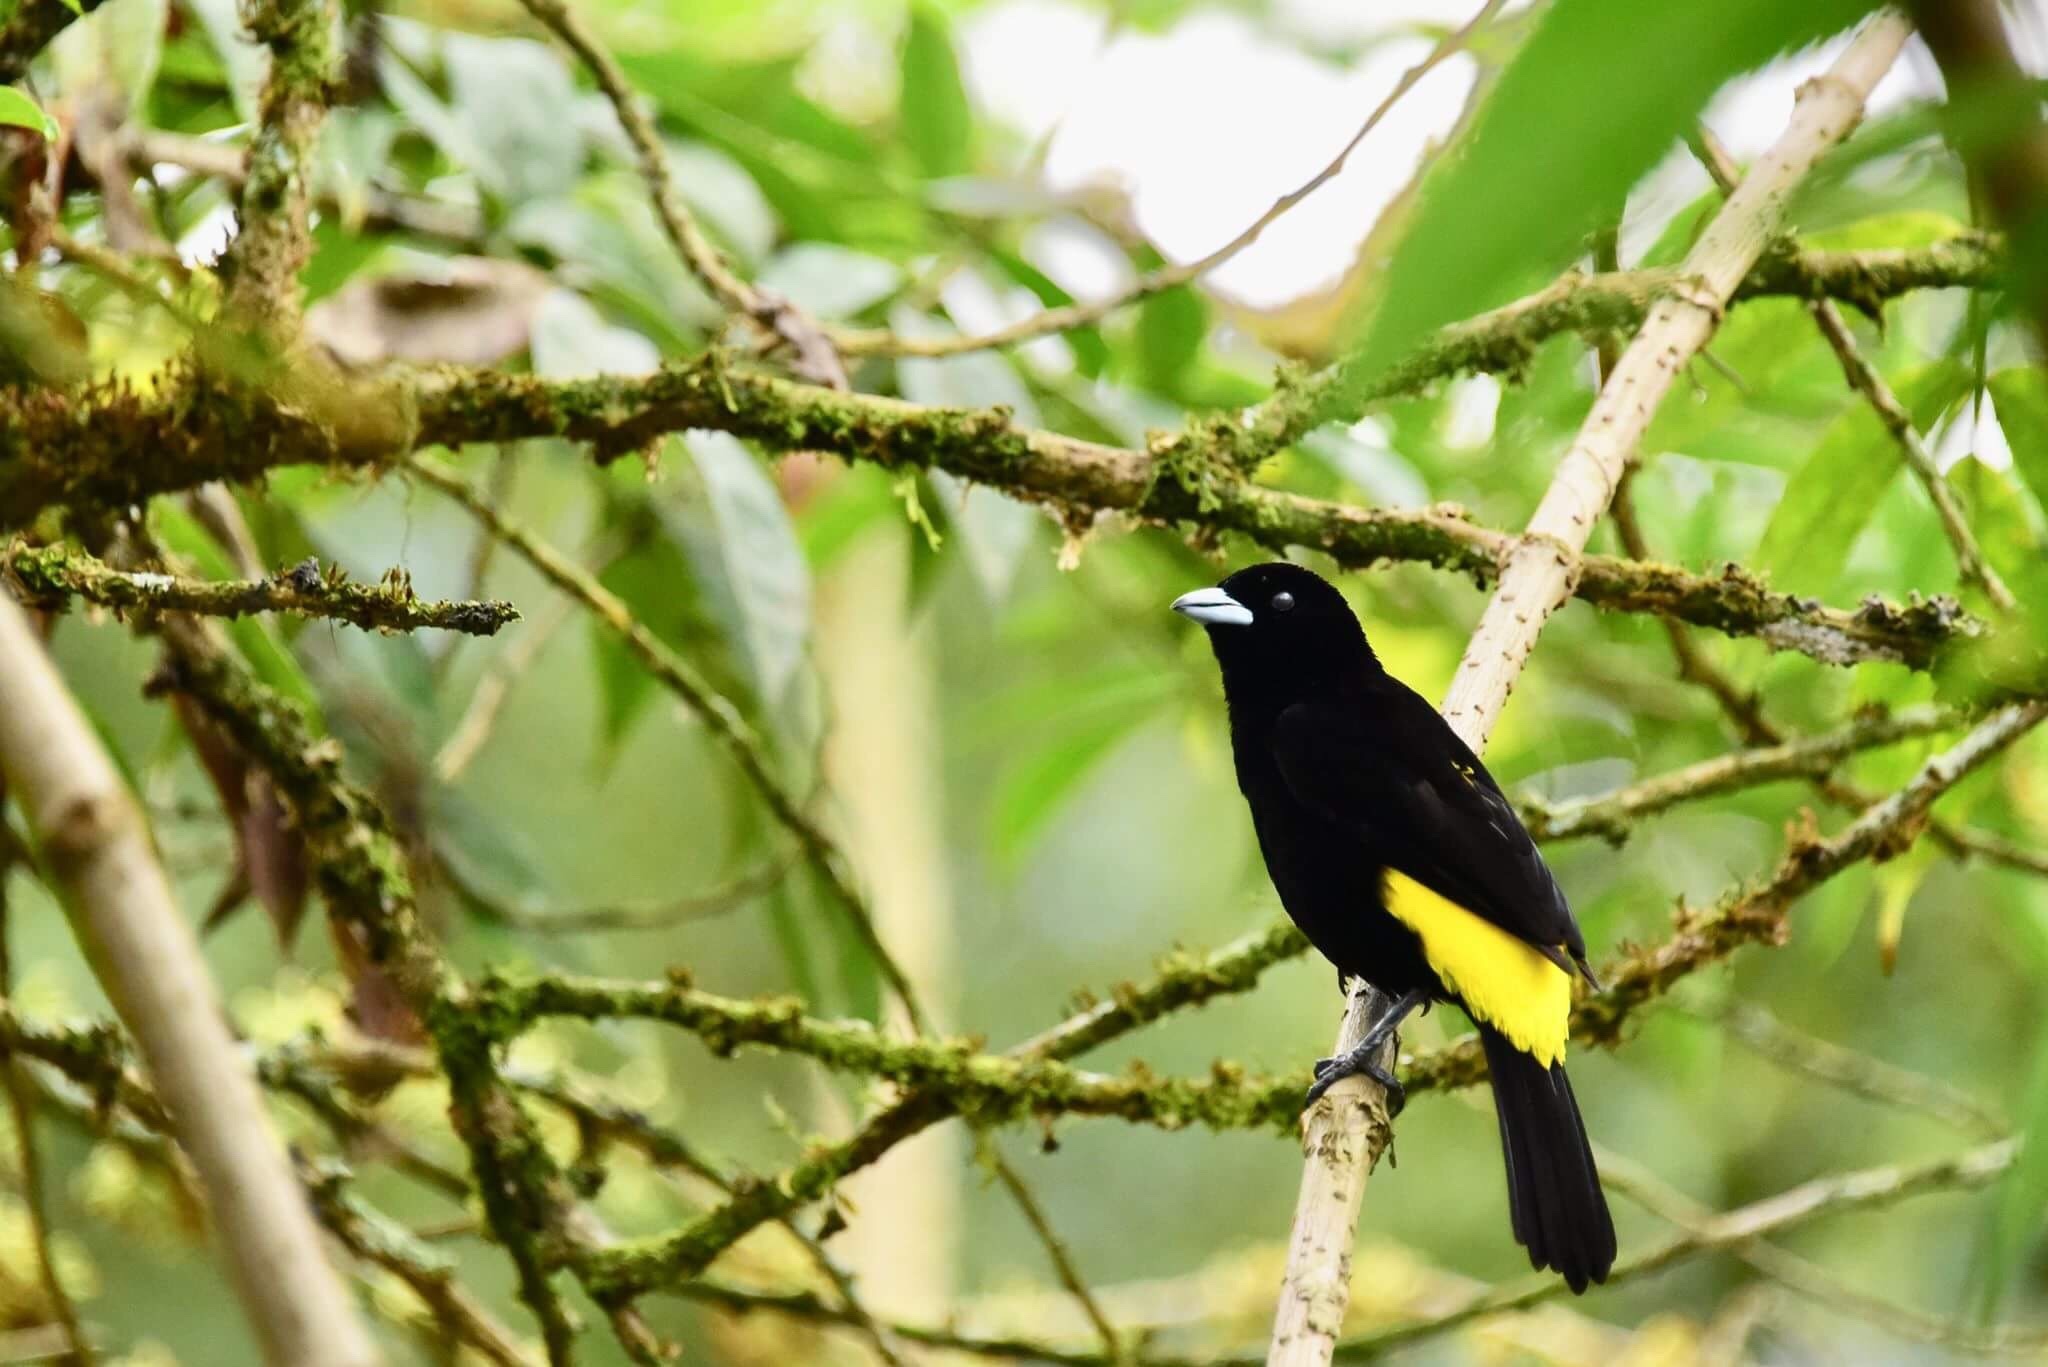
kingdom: Animalia
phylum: Chordata
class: Aves
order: Passeriformes
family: Thraupidae
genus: Ramphocelus
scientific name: Ramphocelus flammigerus
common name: Flame-rumped tanager
